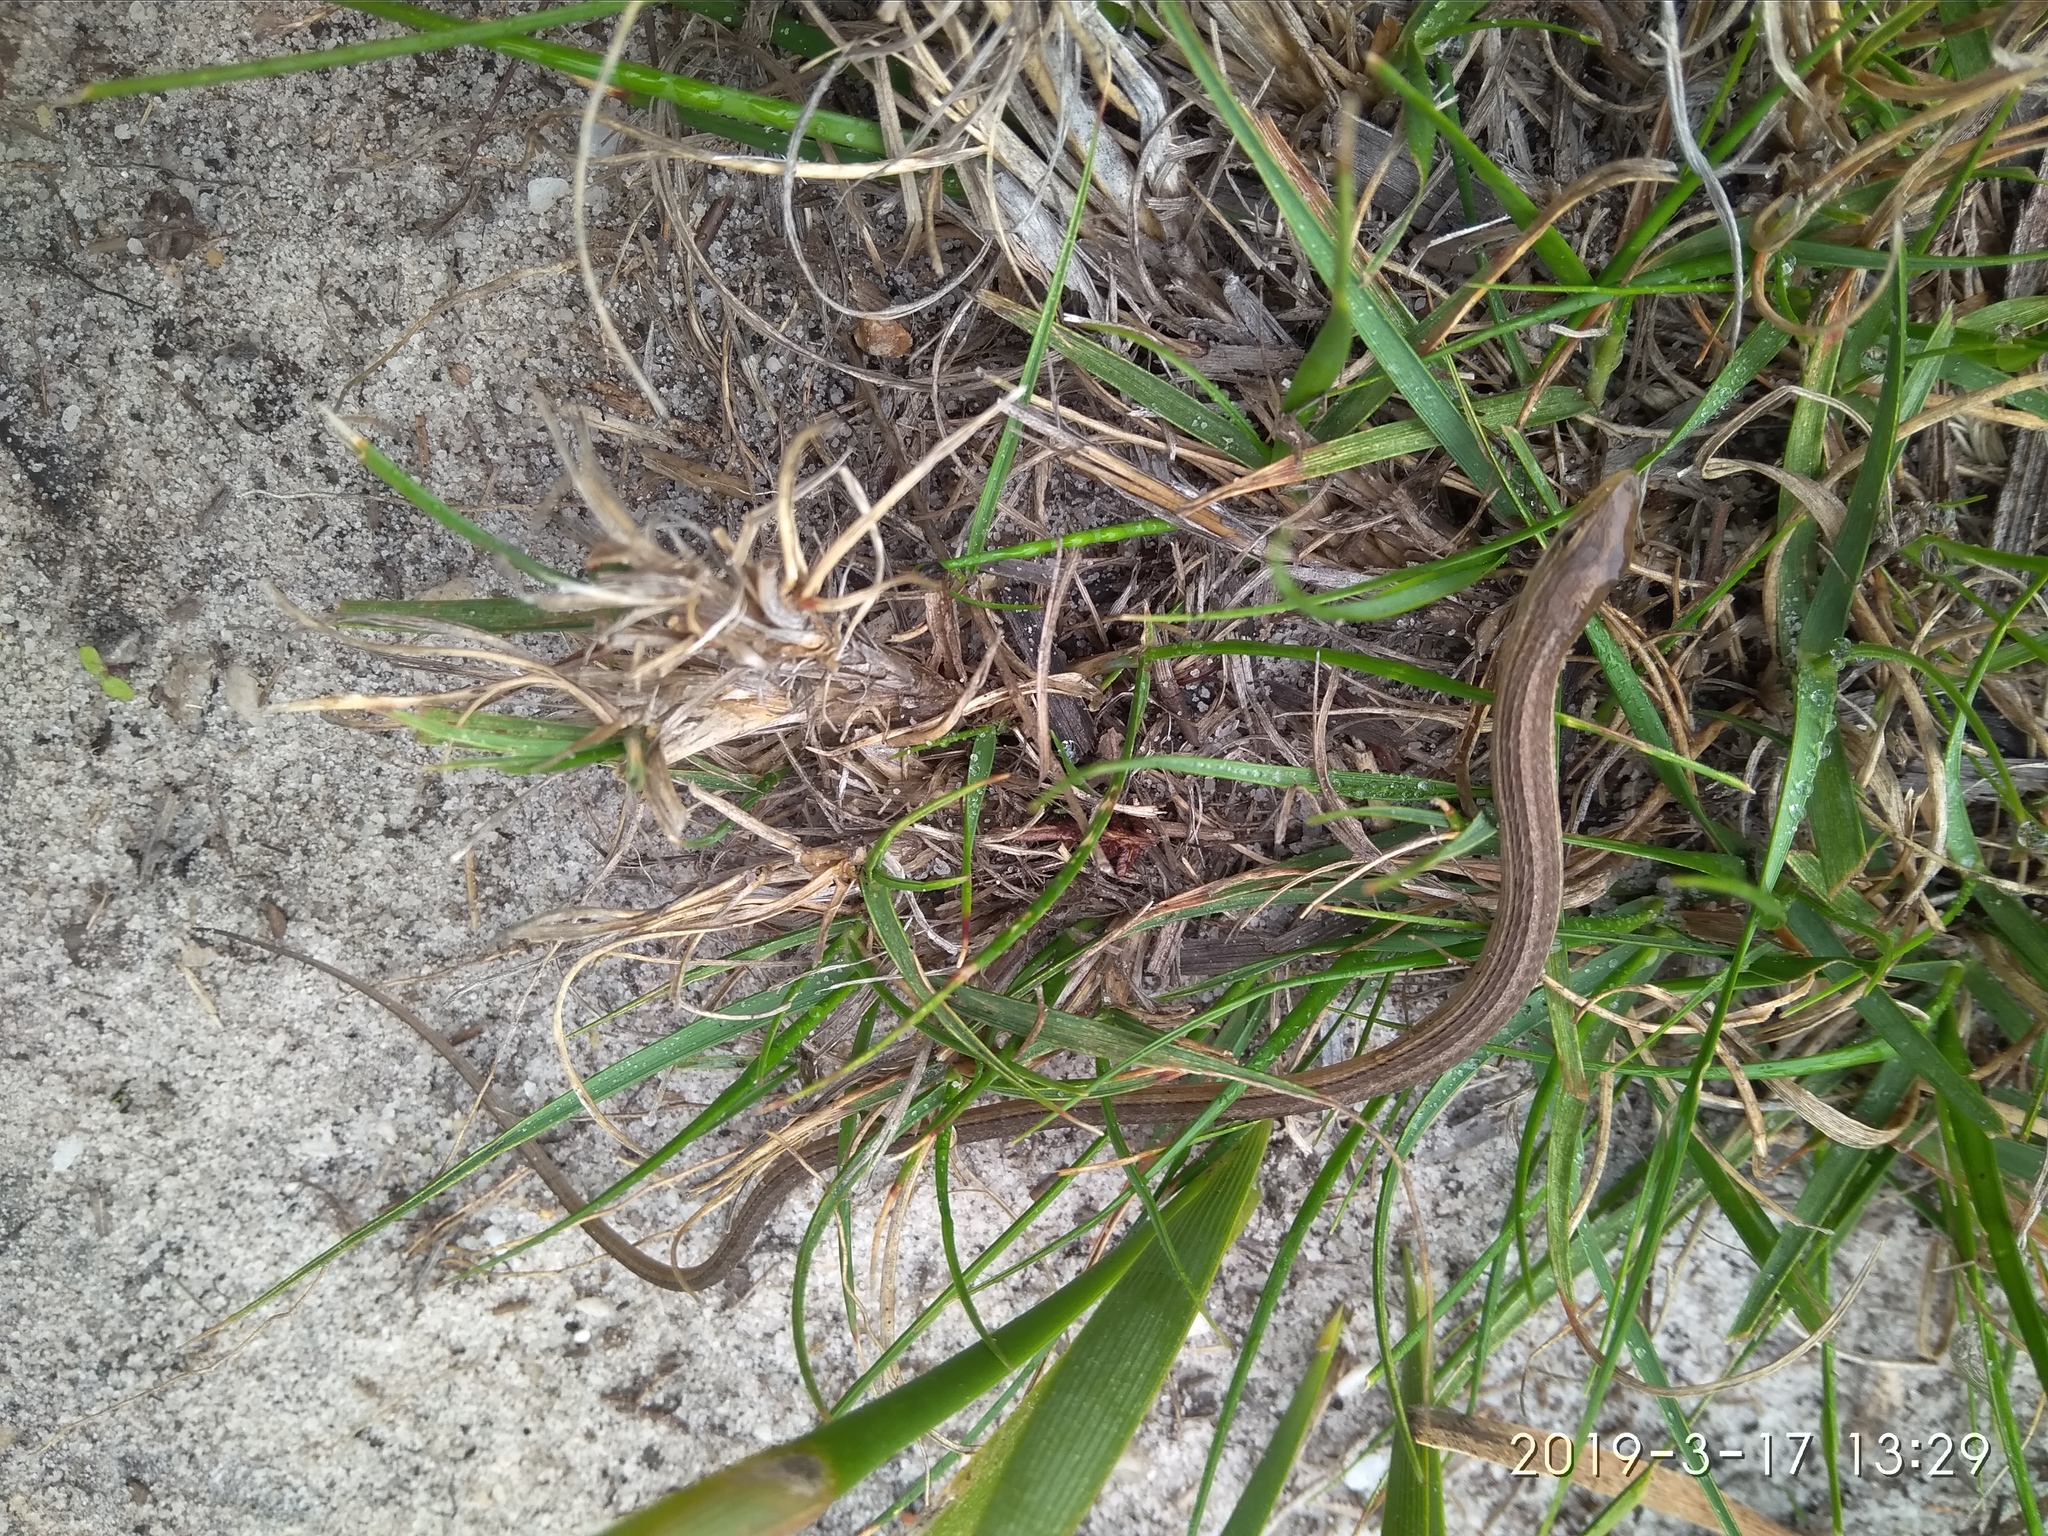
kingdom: Animalia
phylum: Chordata
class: Squamata
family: Cordylidae
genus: Chamaesaura
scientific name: Chamaesaura anguina
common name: Cape snake lizard
